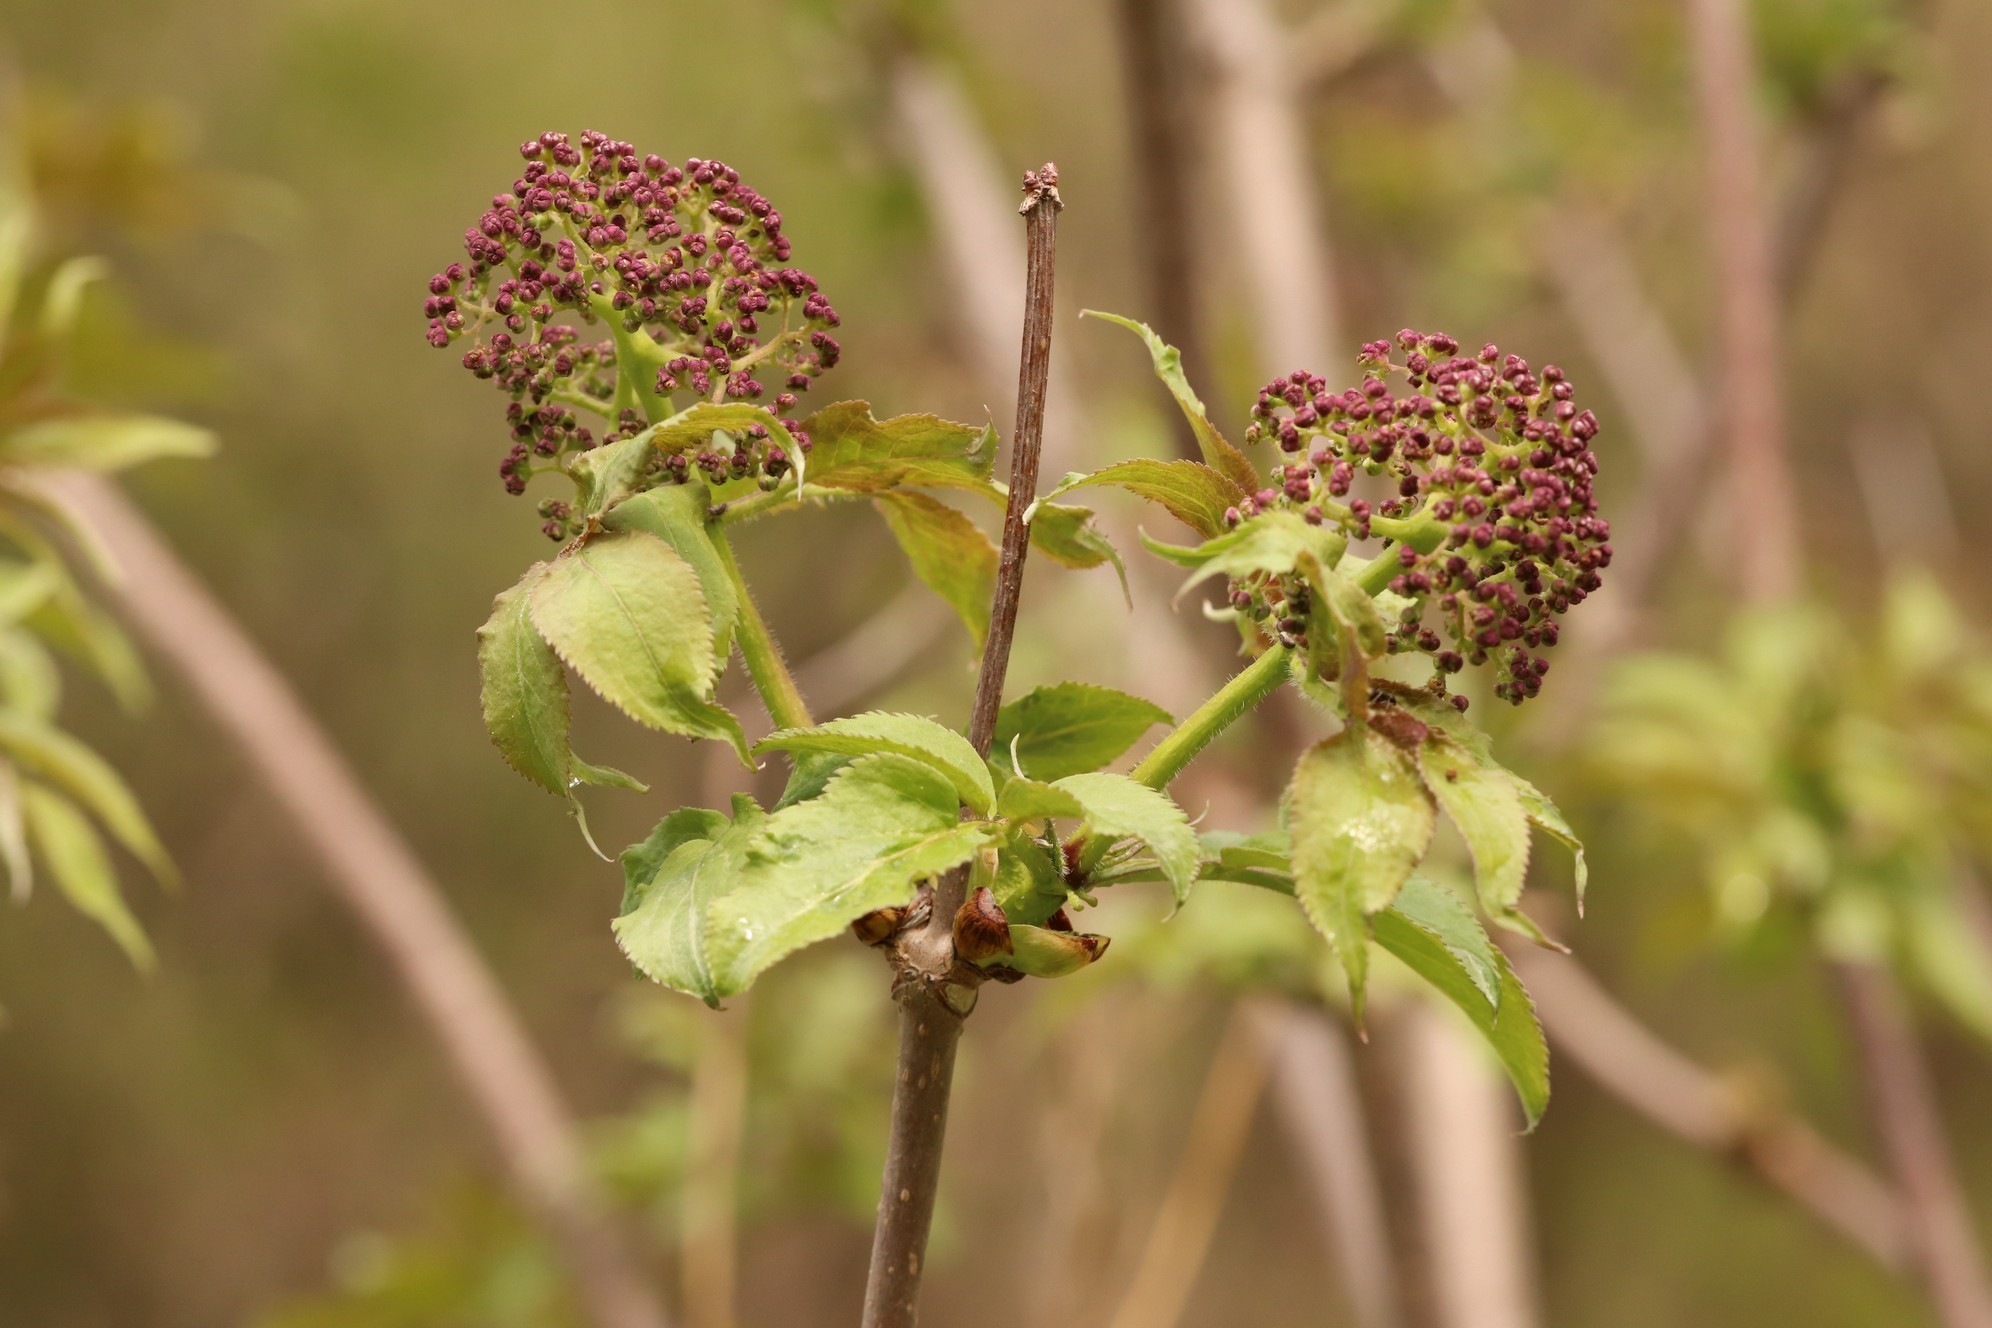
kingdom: Plantae
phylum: Tracheophyta
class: Magnoliopsida
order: Dipsacales
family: Viburnaceae
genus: Sambucus
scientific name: Sambucus sibirica
